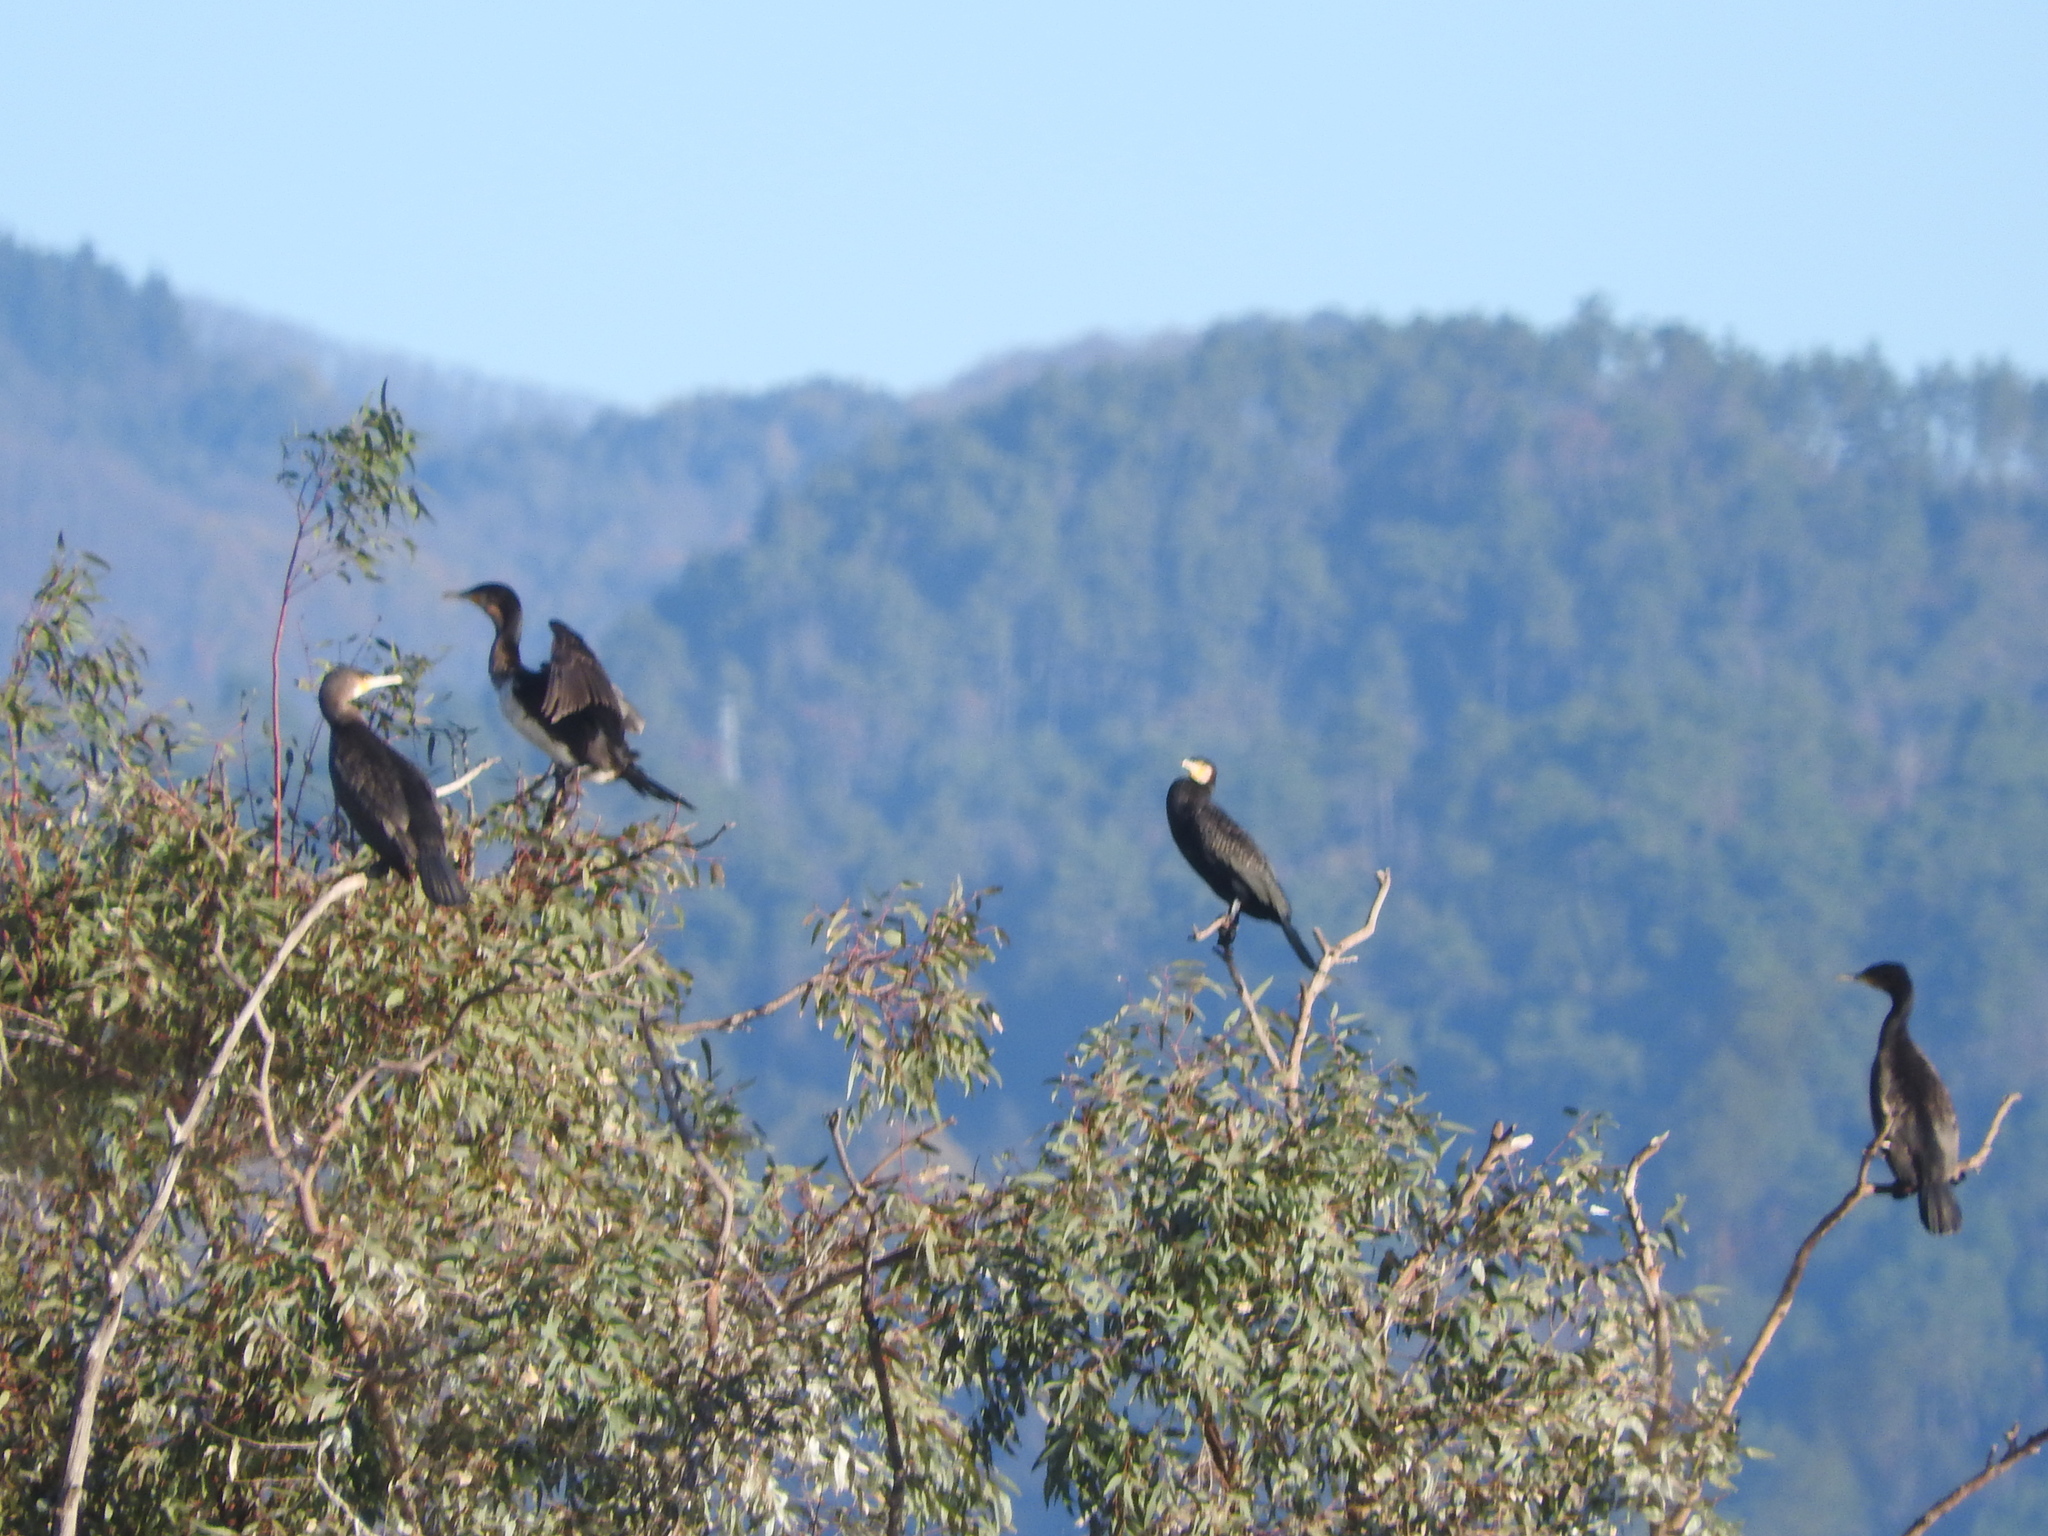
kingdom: Animalia
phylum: Chordata
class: Aves
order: Suliformes
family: Phalacrocoracidae
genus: Phalacrocorax
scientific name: Phalacrocorax carbo
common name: Great cormorant
